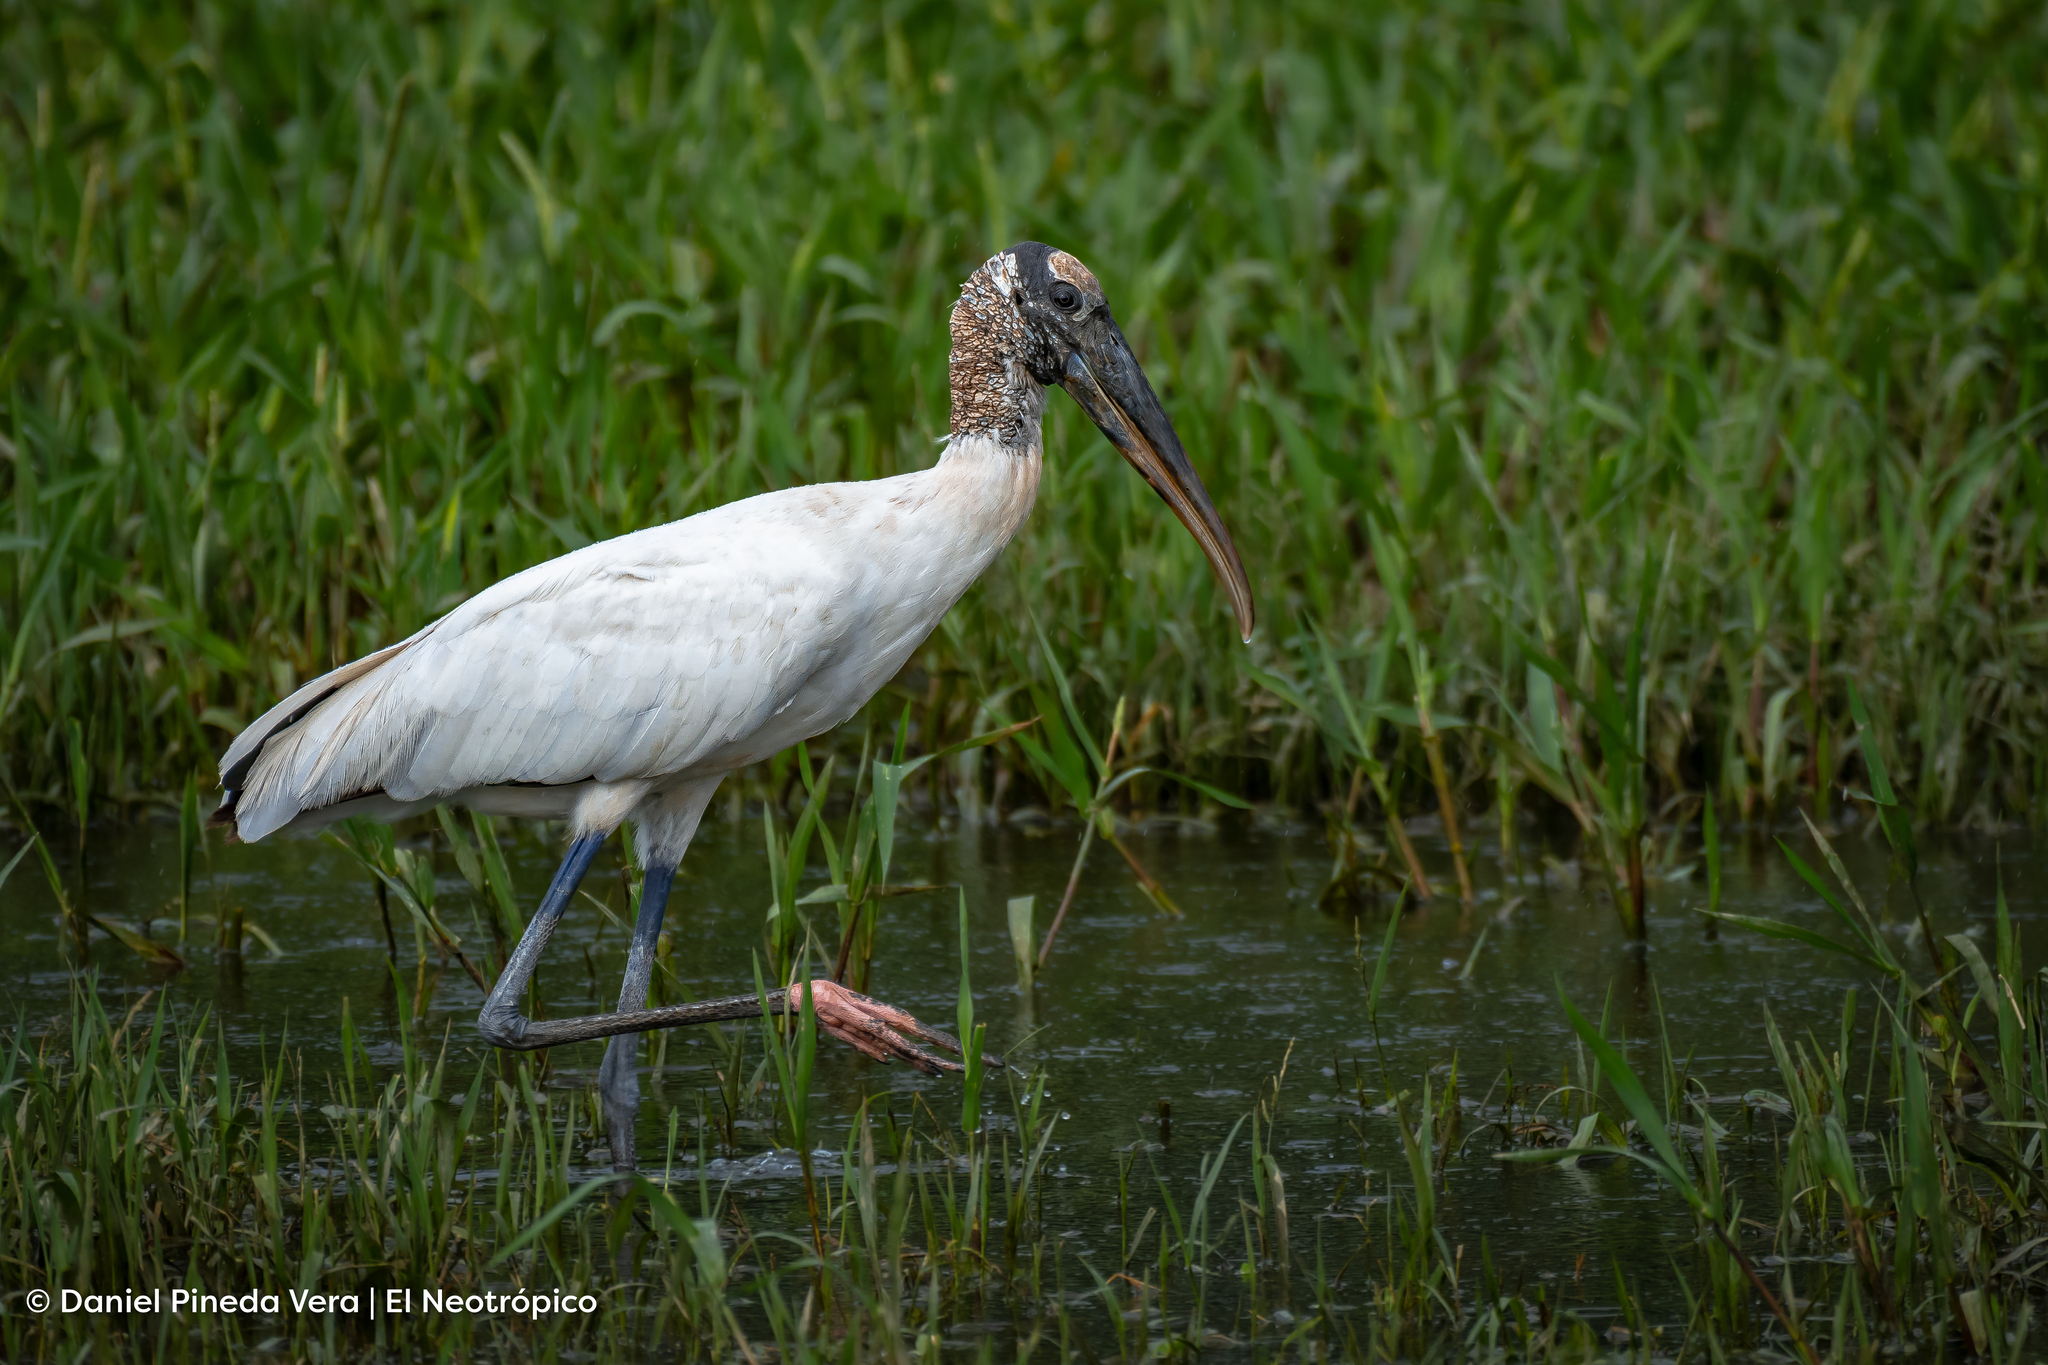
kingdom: Animalia
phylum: Chordata
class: Aves
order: Ciconiiformes
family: Ciconiidae
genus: Mycteria
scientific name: Mycteria americana
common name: Wood stork
